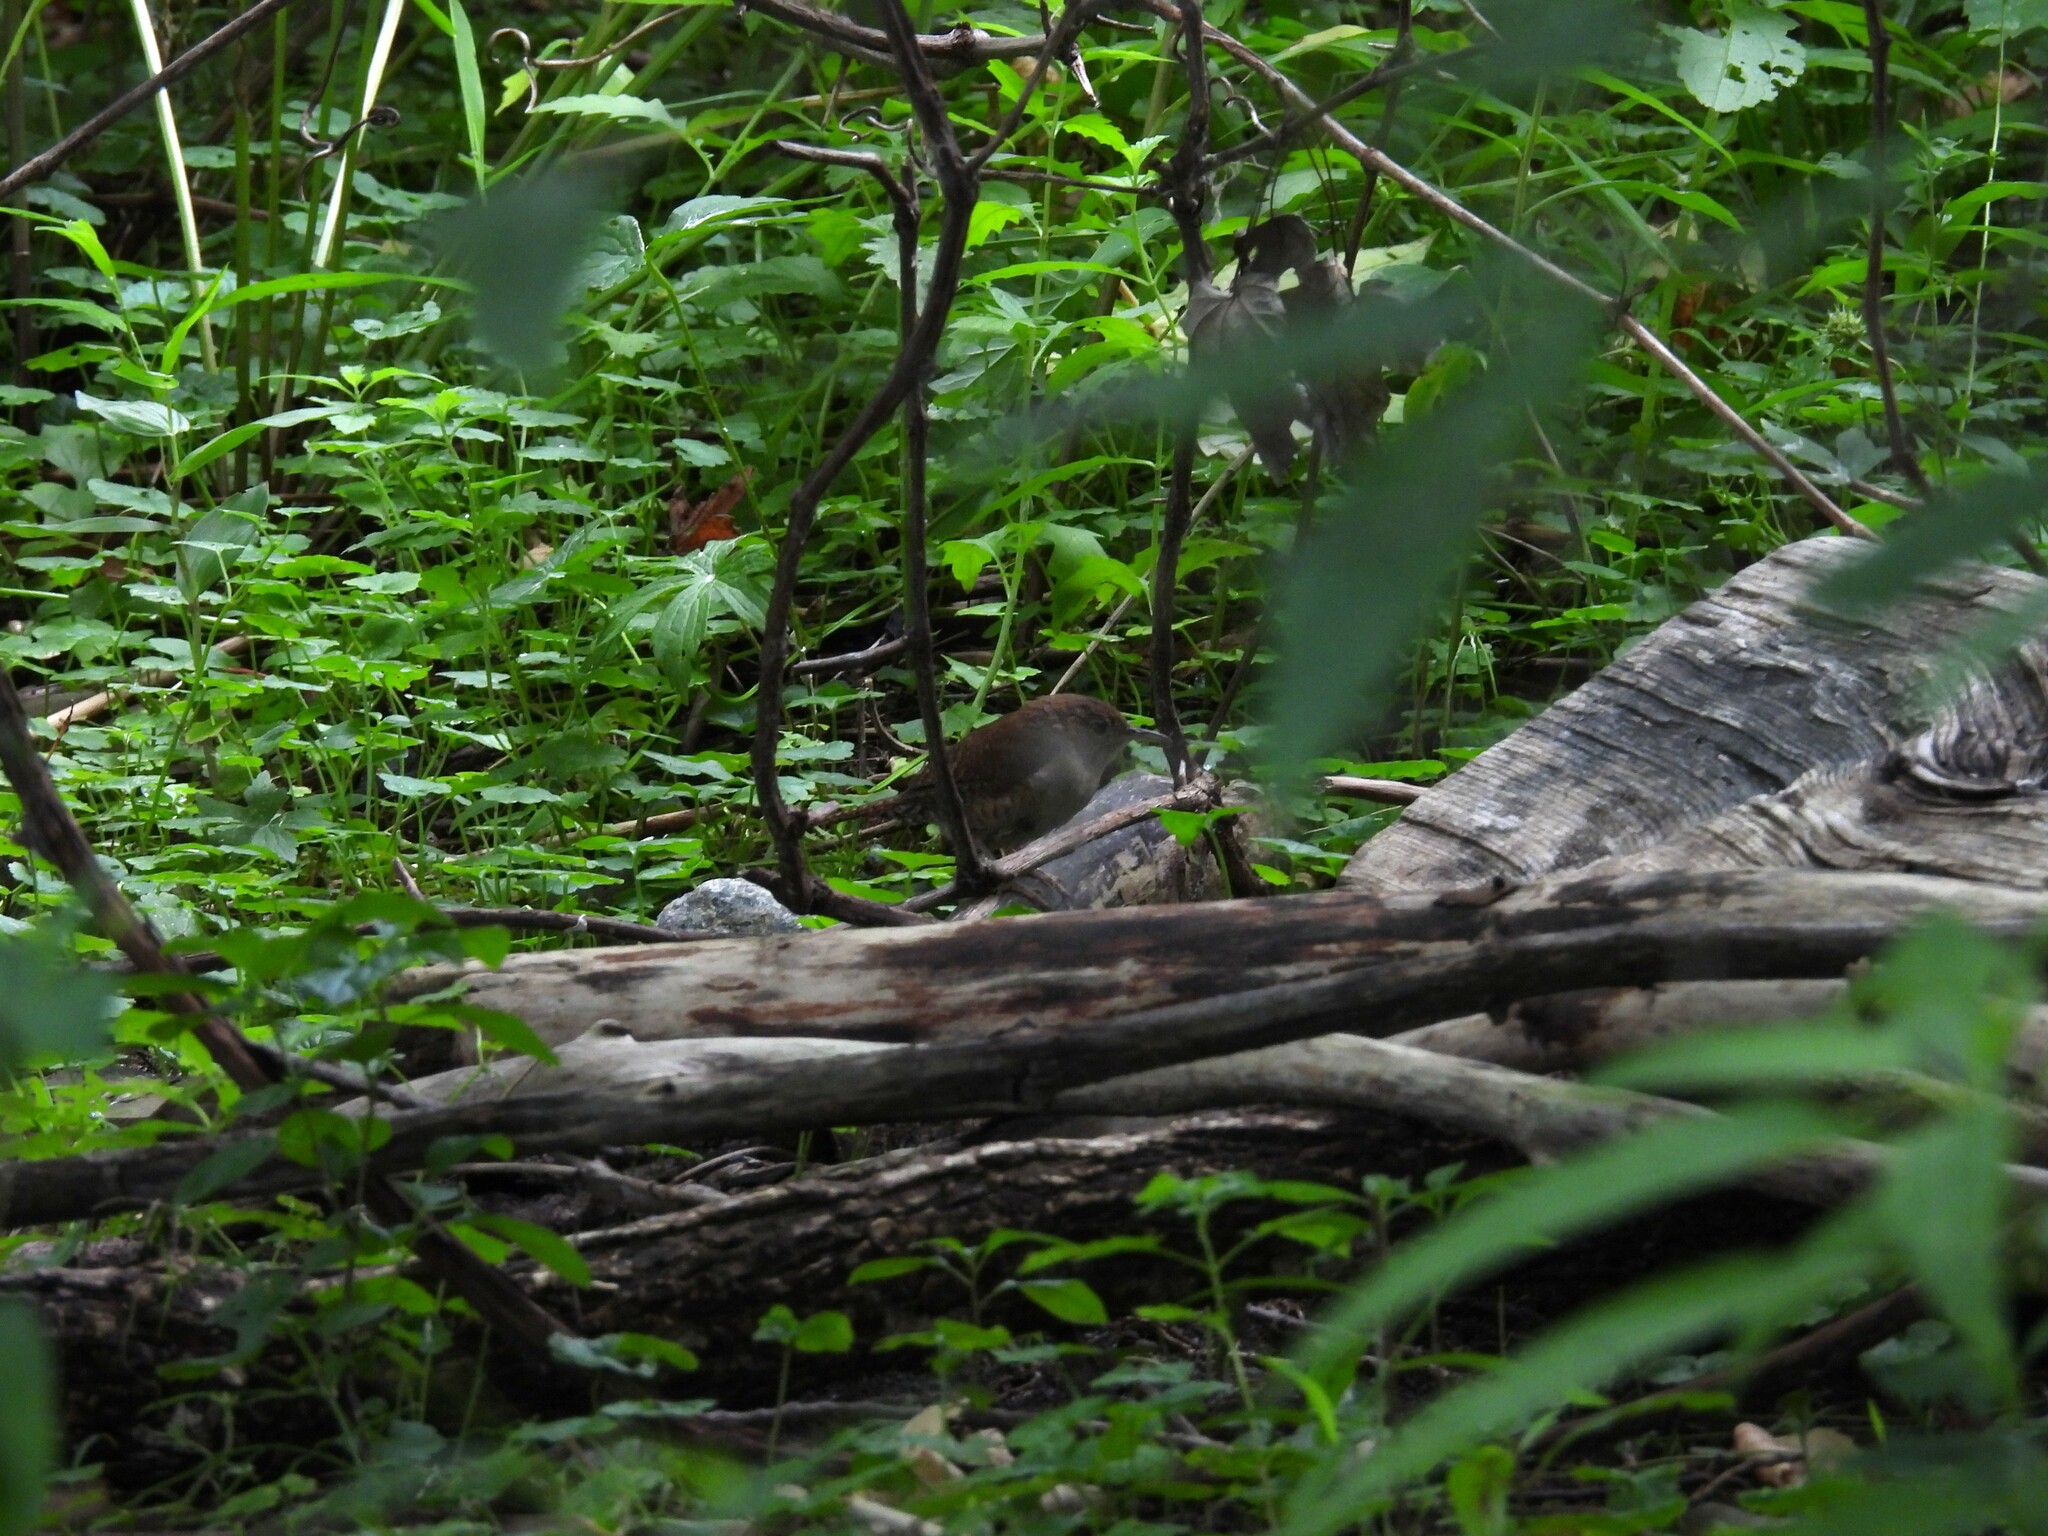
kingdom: Animalia
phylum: Chordata
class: Aves
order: Passeriformes
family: Troglodytidae
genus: Troglodytes
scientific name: Troglodytes aedon
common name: House wren
